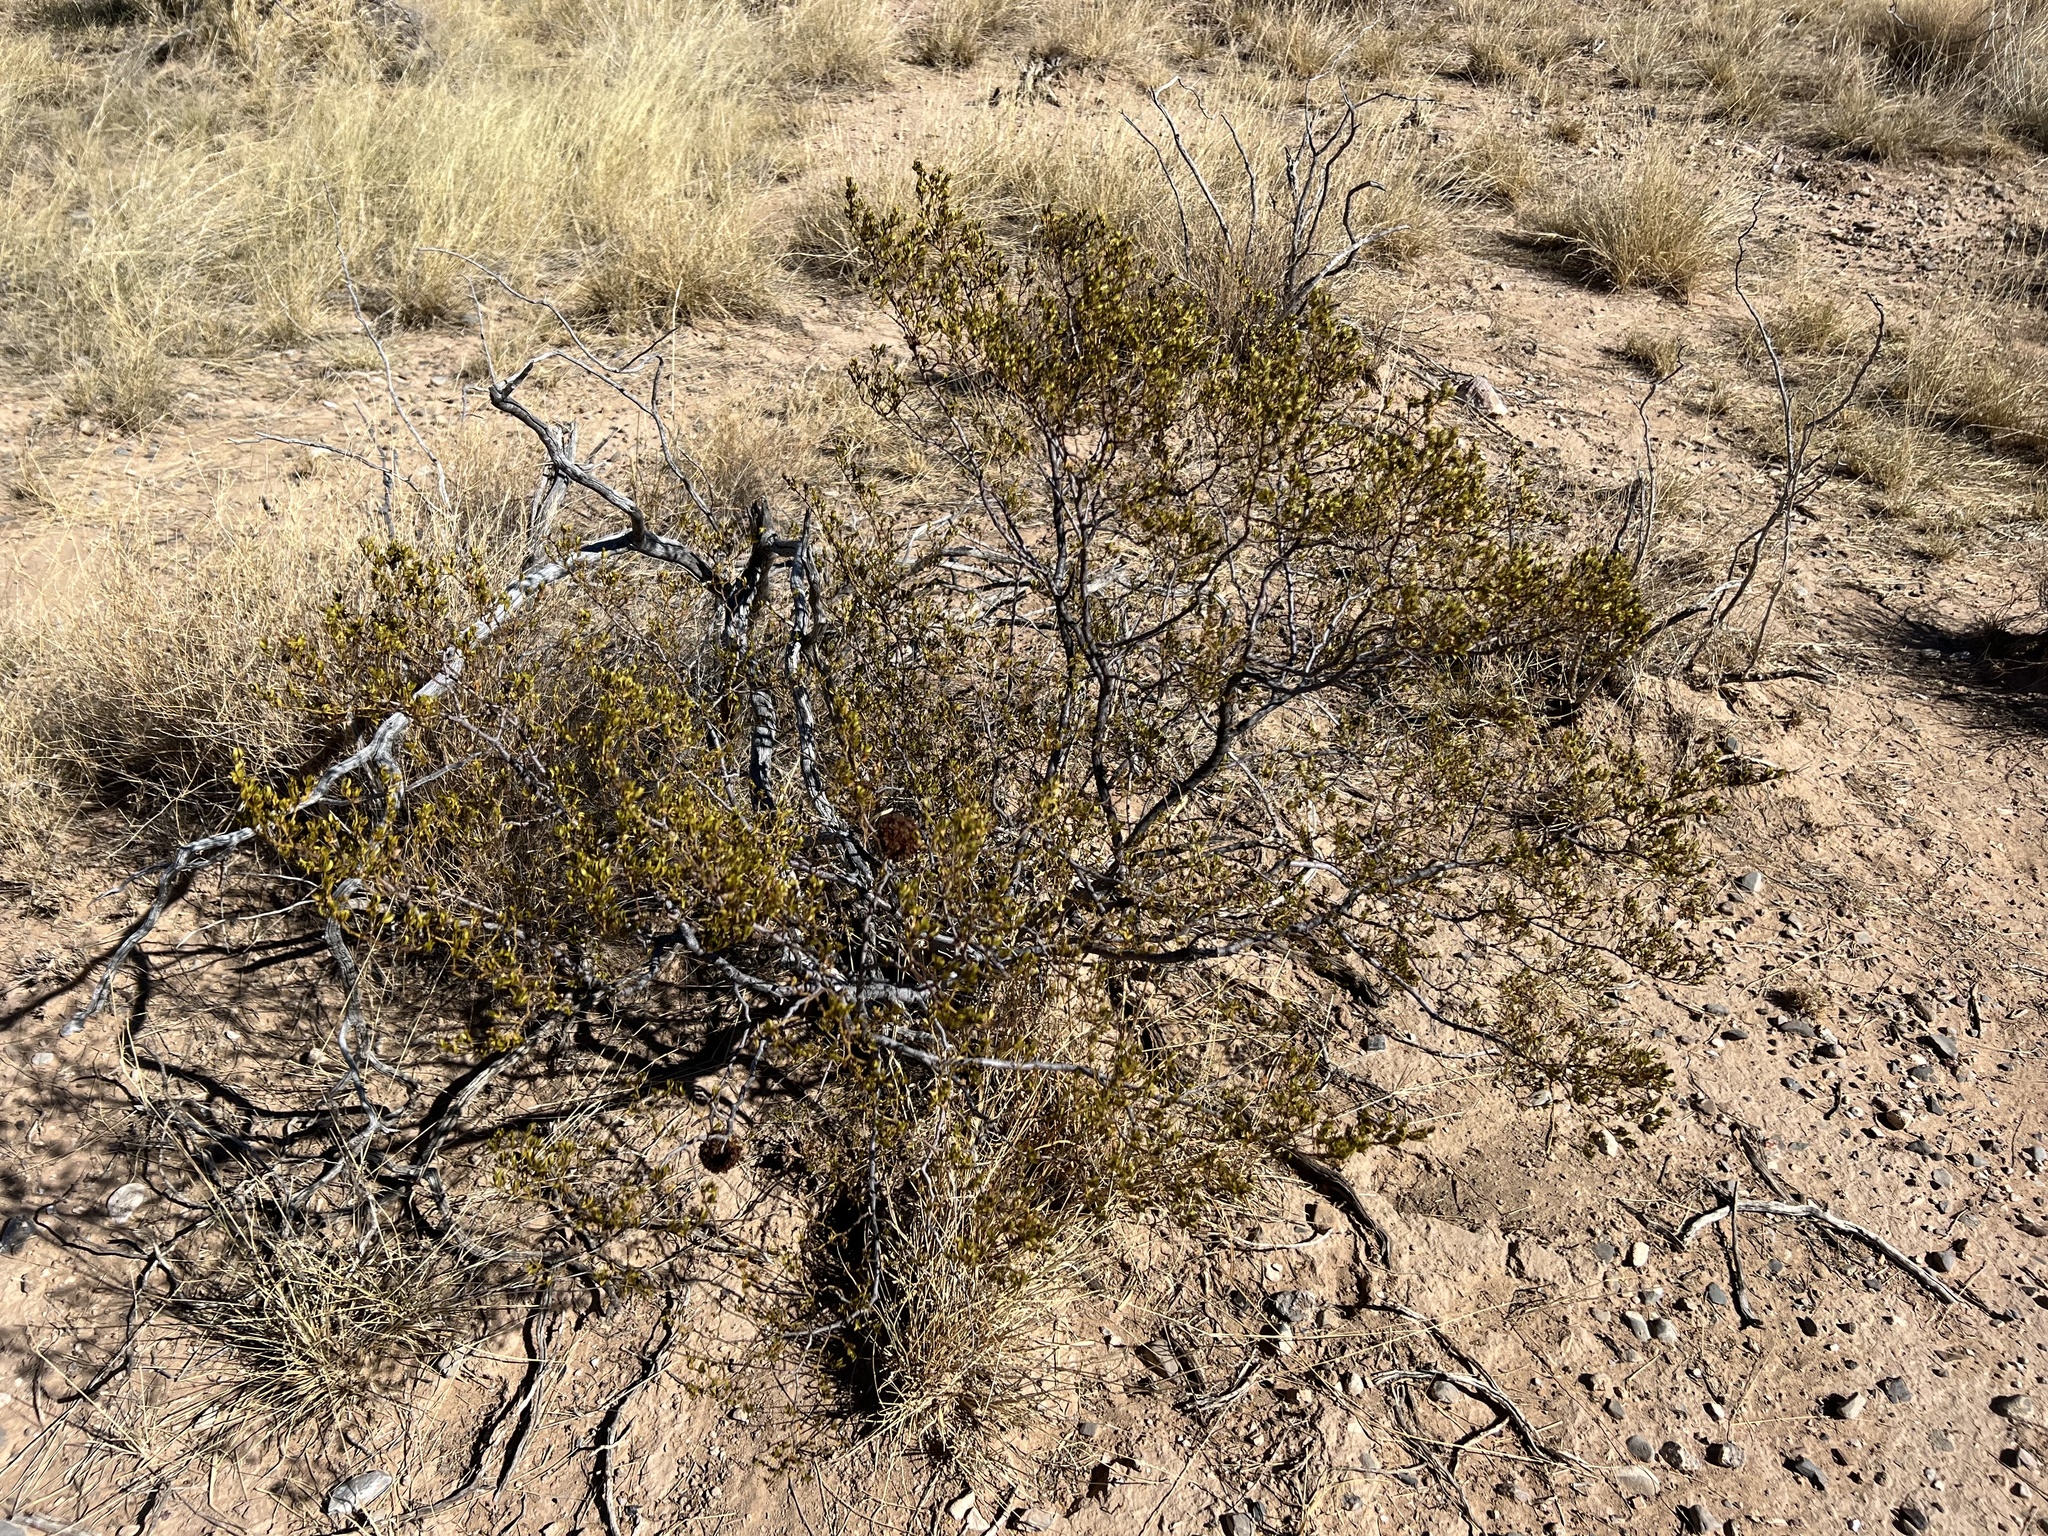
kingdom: Plantae
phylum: Tracheophyta
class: Magnoliopsida
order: Zygophyllales
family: Zygophyllaceae
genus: Larrea
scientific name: Larrea tridentata
